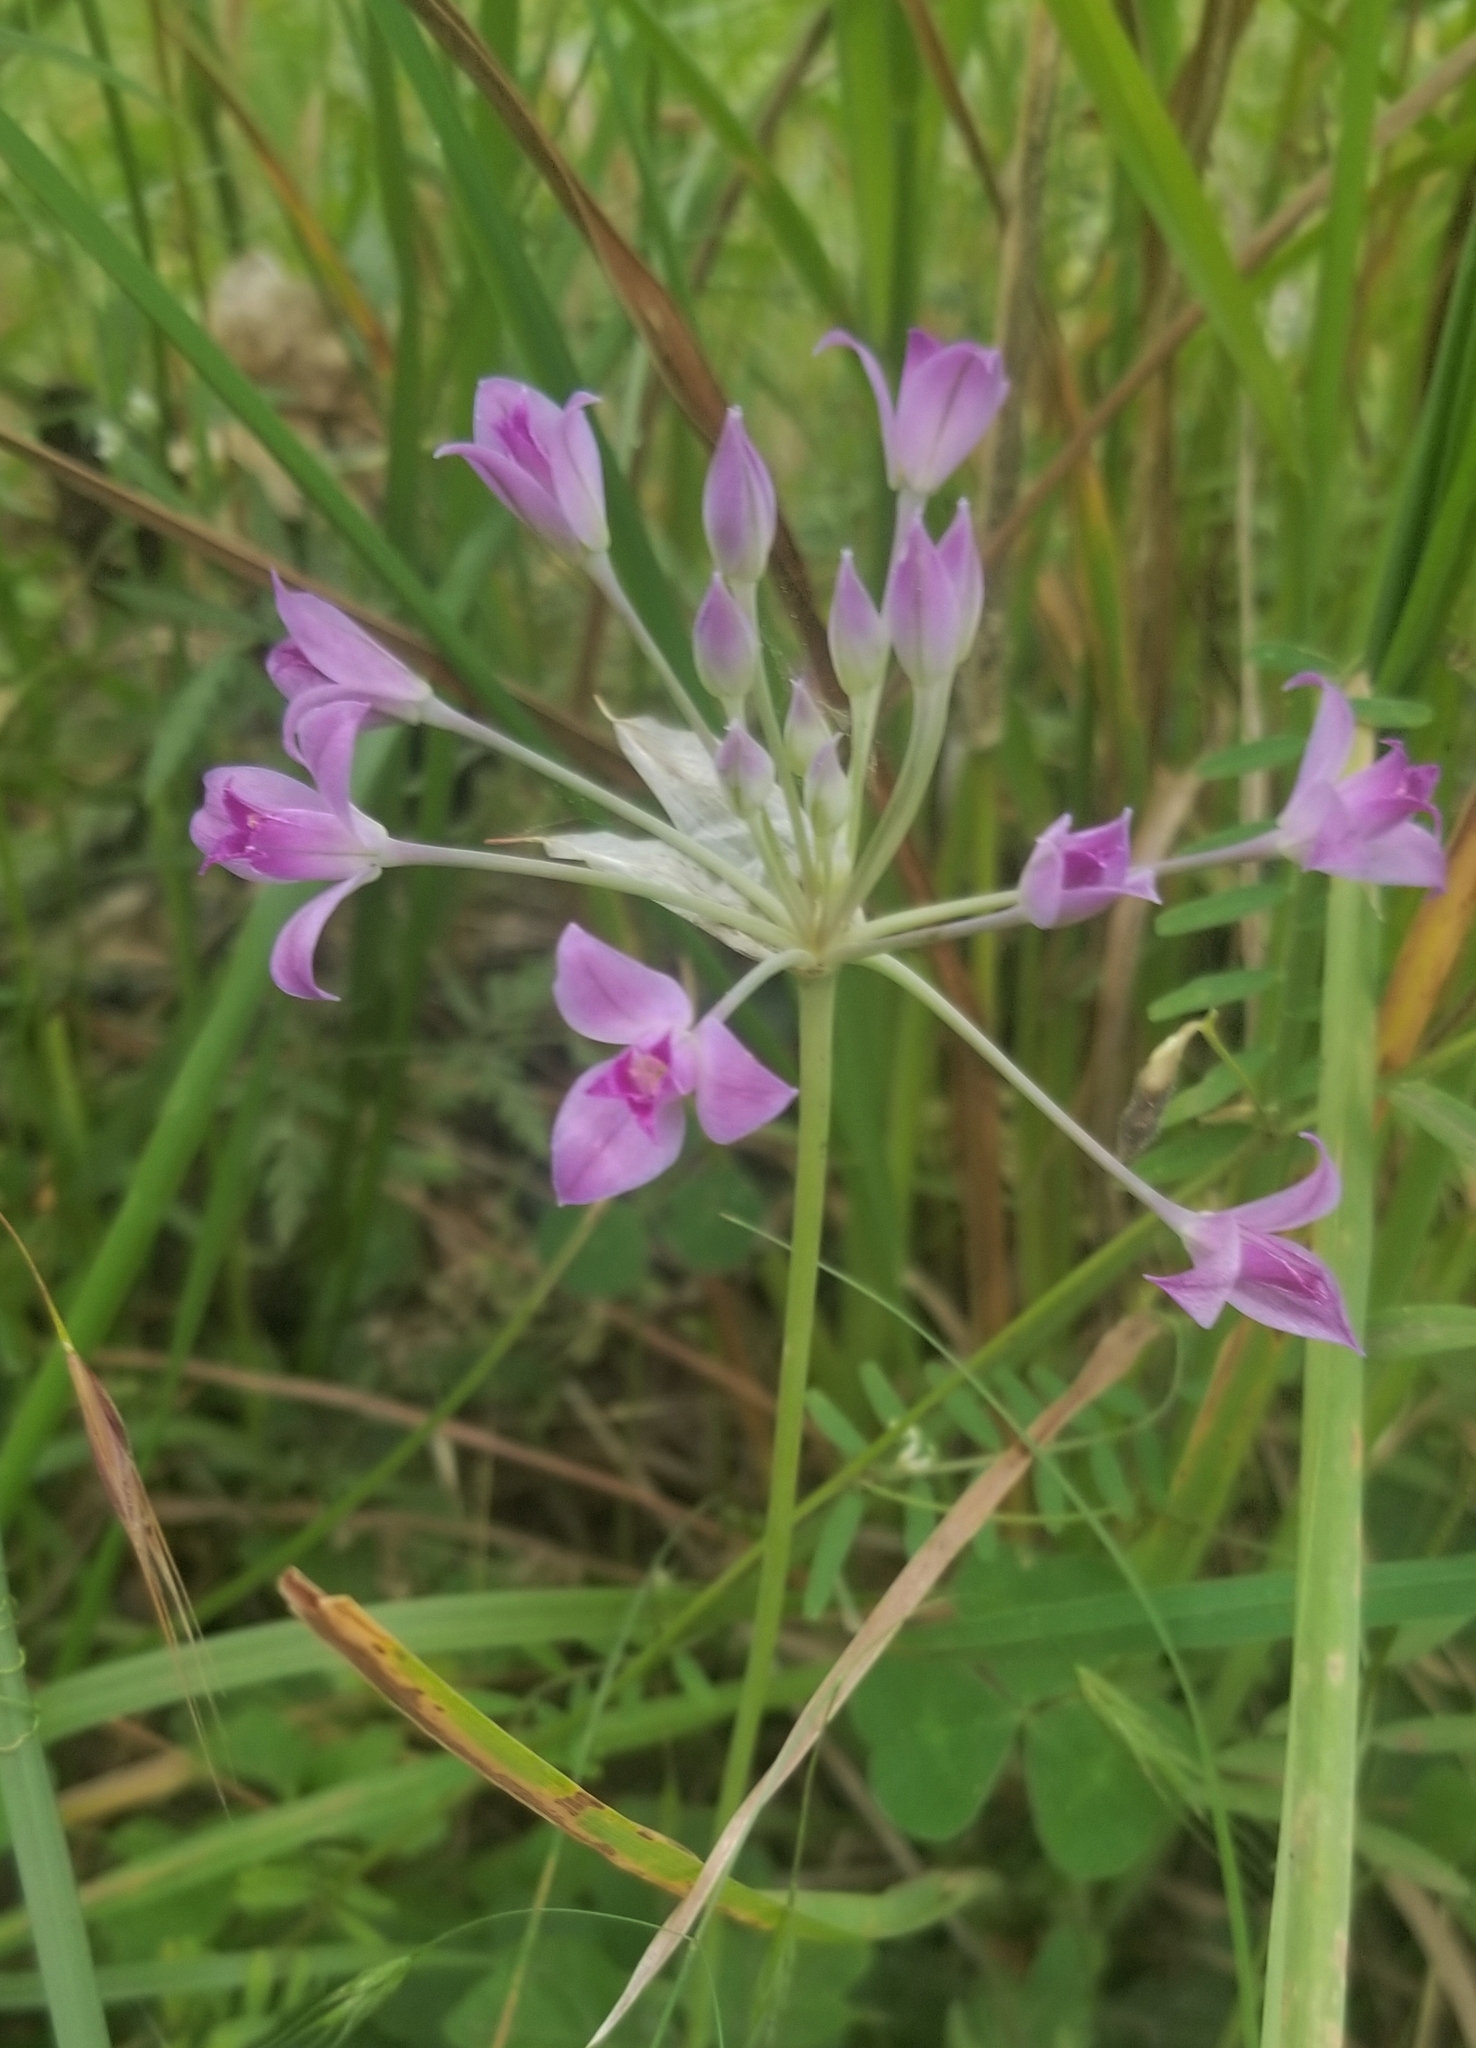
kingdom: Plantae
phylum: Tracheophyta
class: Liliopsida
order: Asparagales
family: Amaryllidaceae
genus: Allium
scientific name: Allium acuminatum
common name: Hooker's onion
